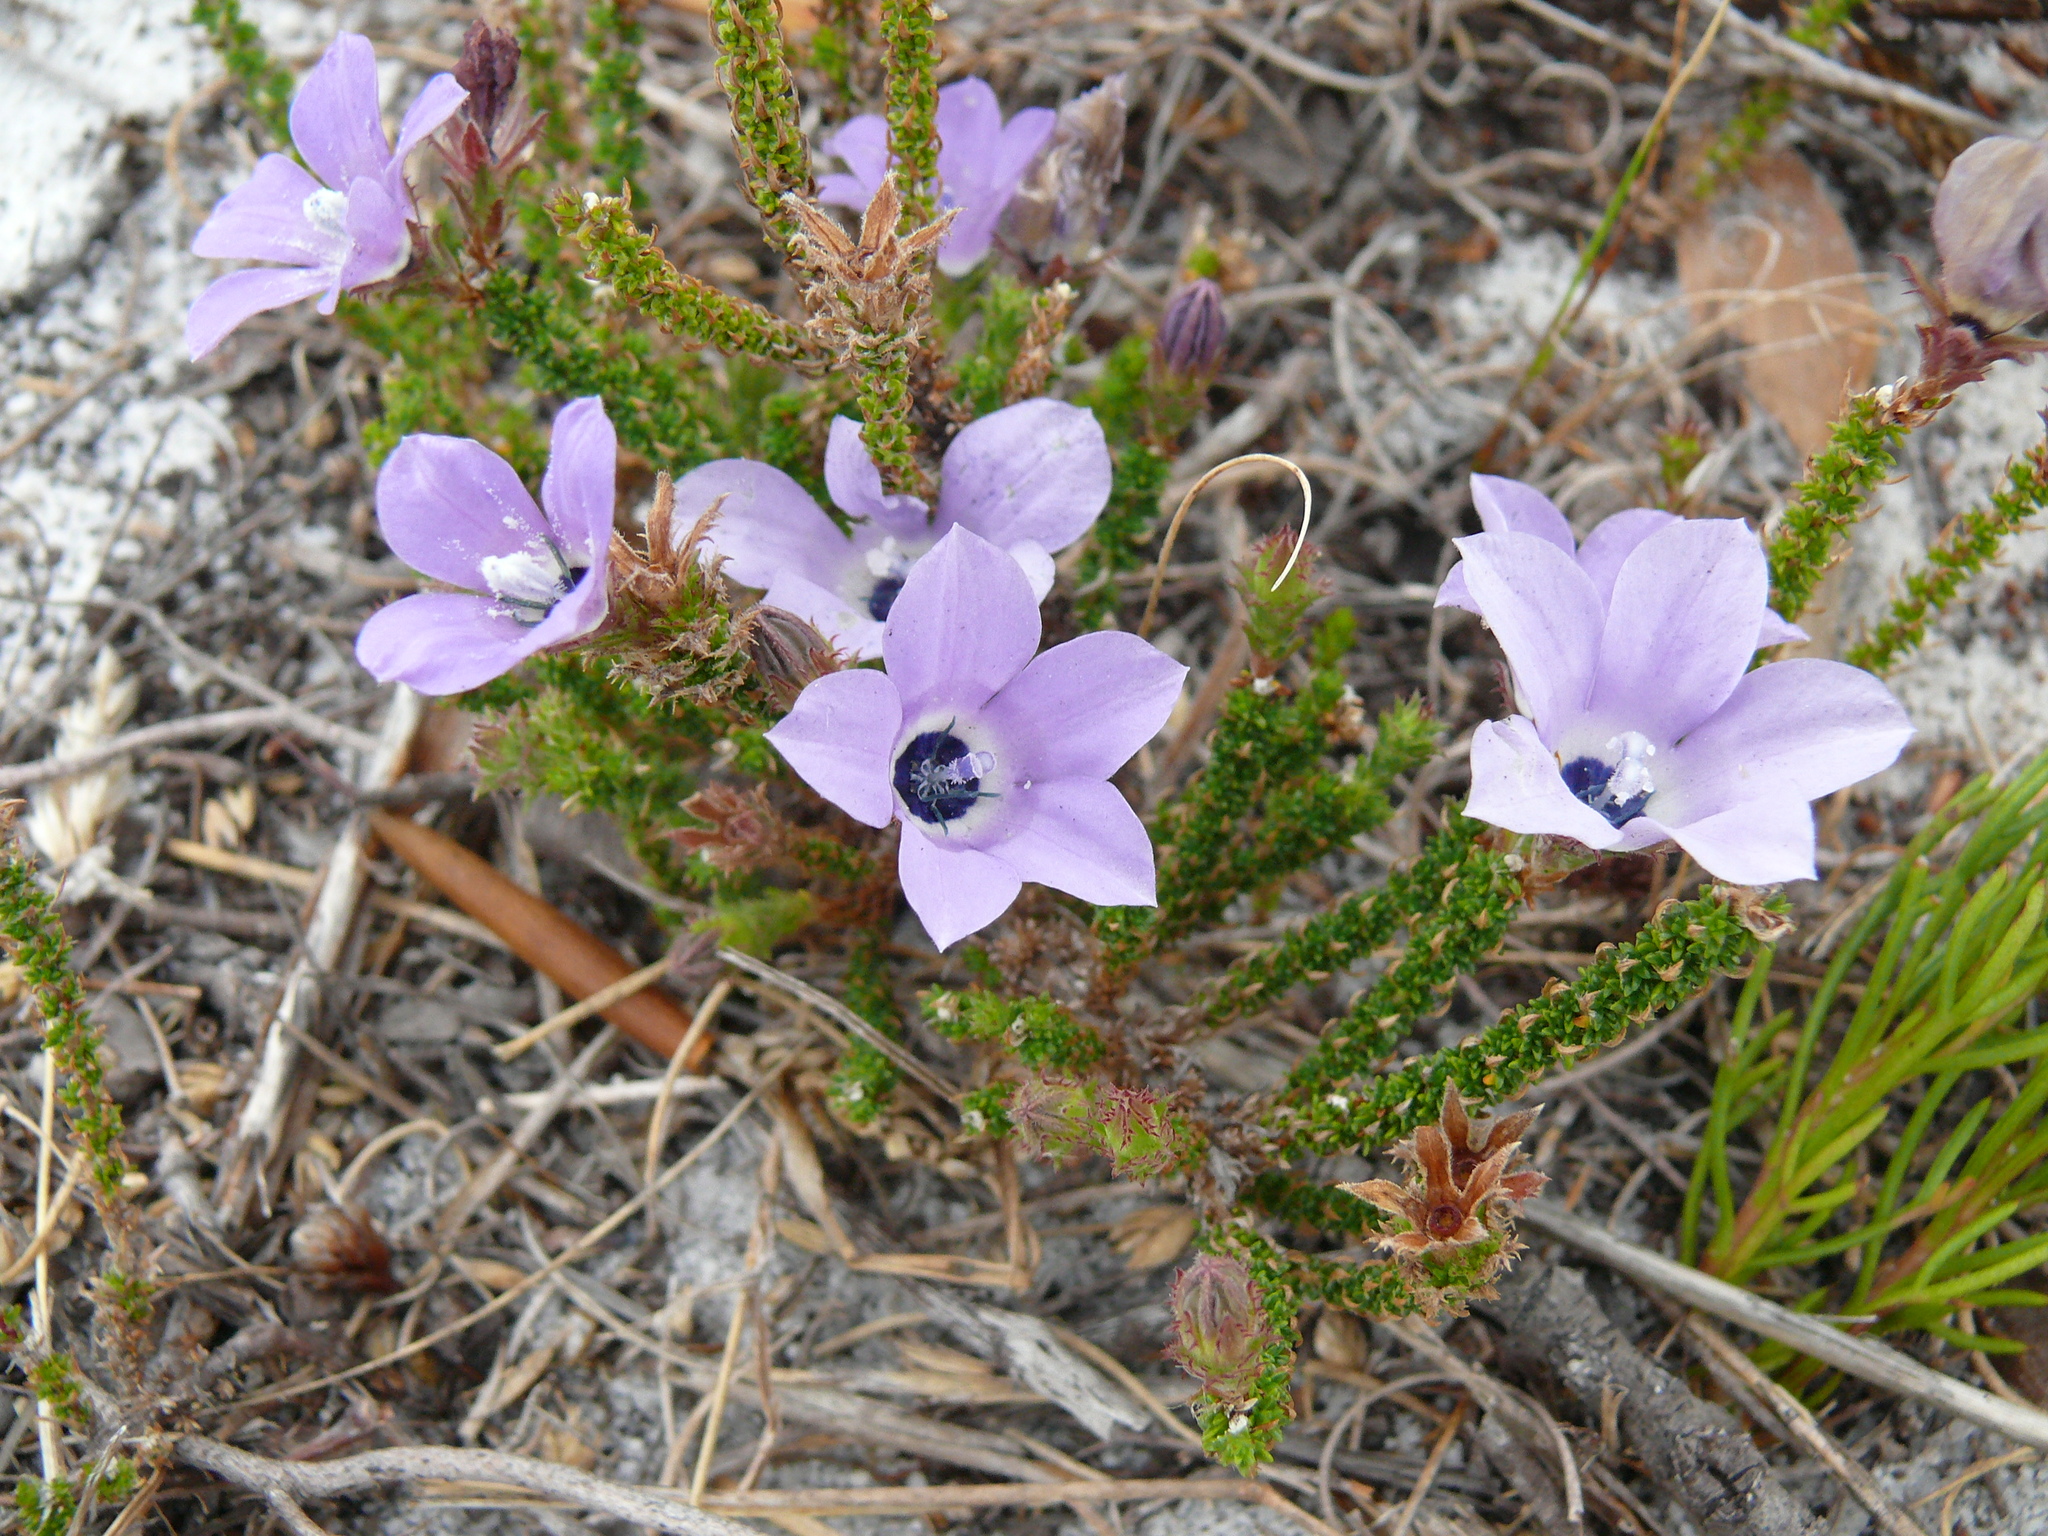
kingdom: Plantae
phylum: Tracheophyta
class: Magnoliopsida
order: Asterales
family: Campanulaceae
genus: Roella
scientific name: Roella triflora
